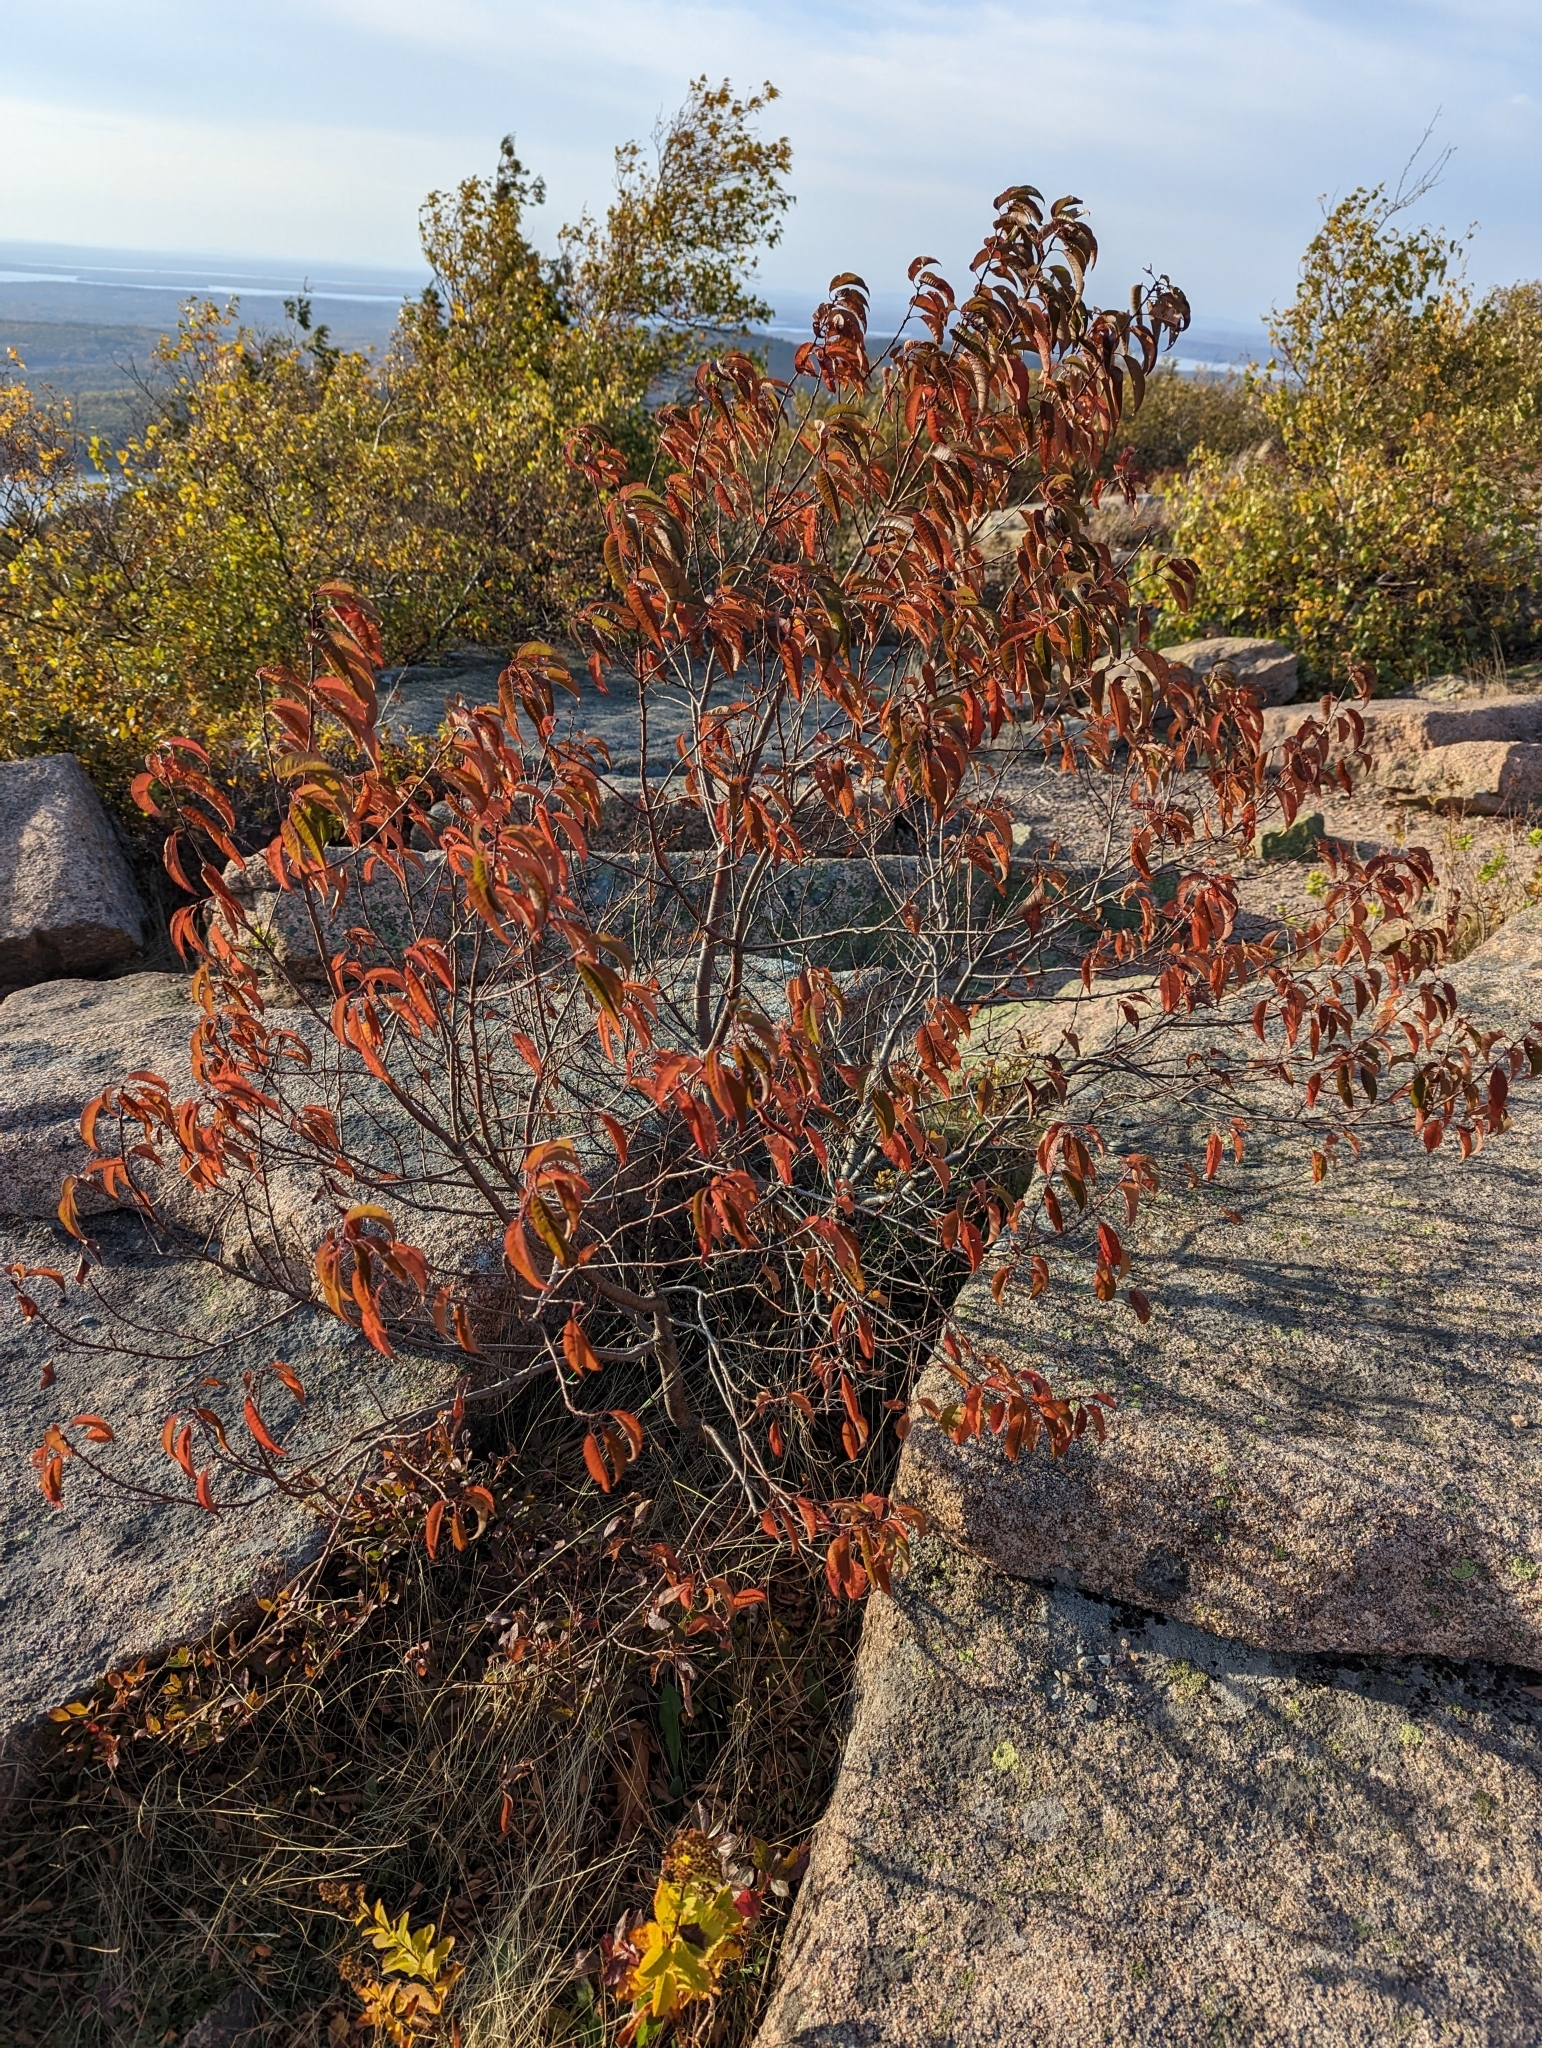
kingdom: Plantae
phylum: Tracheophyta
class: Magnoliopsida
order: Rosales
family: Rosaceae
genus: Prunus
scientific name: Prunus pensylvanica
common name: Pin cherry
